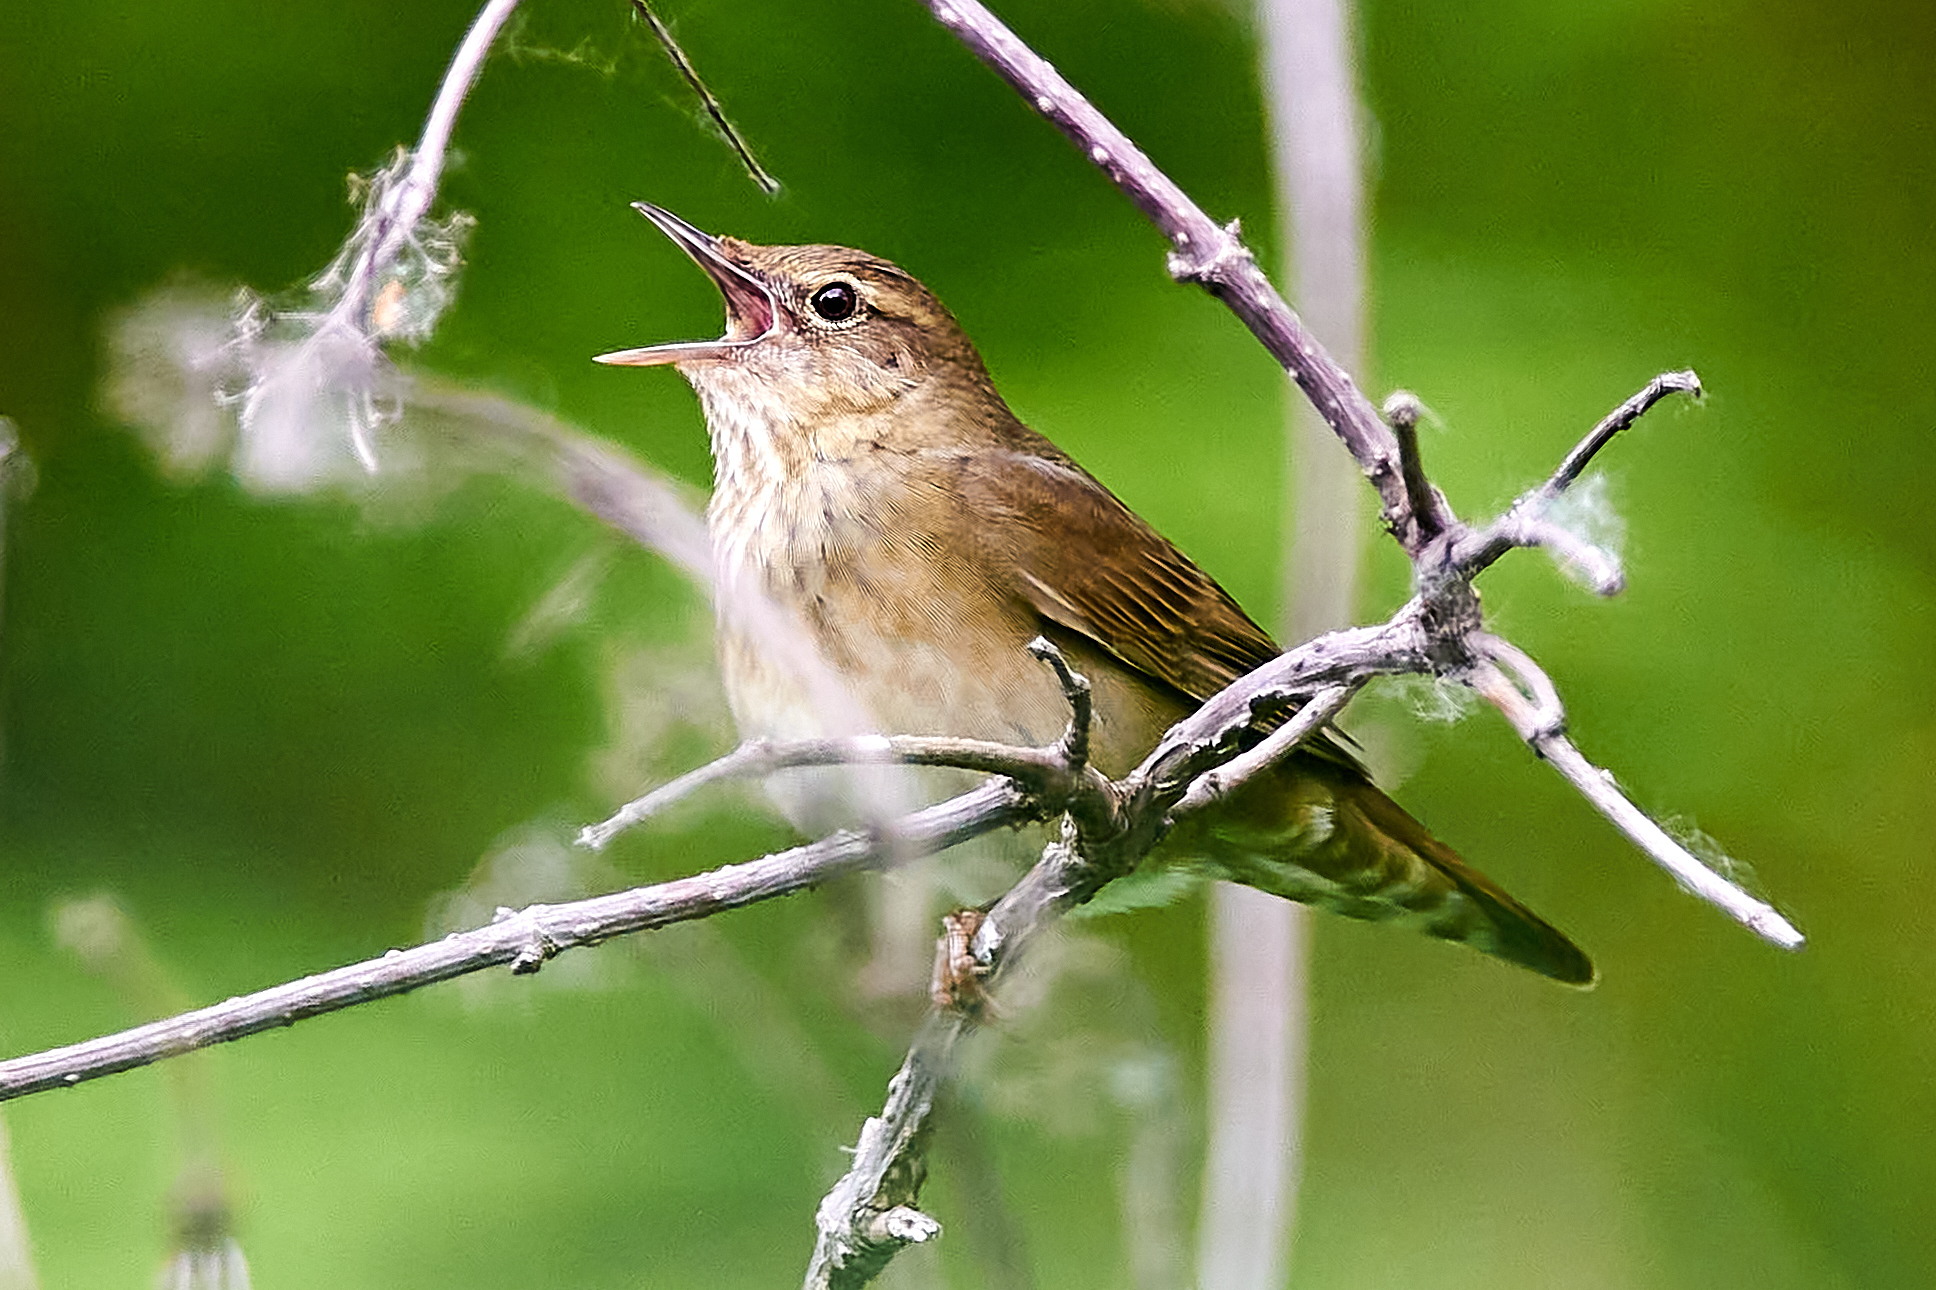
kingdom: Animalia
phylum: Chordata
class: Aves
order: Passeriformes
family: Locustellidae
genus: Locustella
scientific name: Locustella fluviatilis
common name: River warbler
